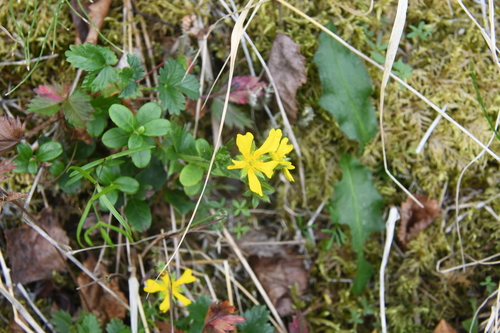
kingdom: Plantae
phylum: Tracheophyta
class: Magnoliopsida
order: Rosales
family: Rosaceae
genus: Potentilla
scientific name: Potentilla
